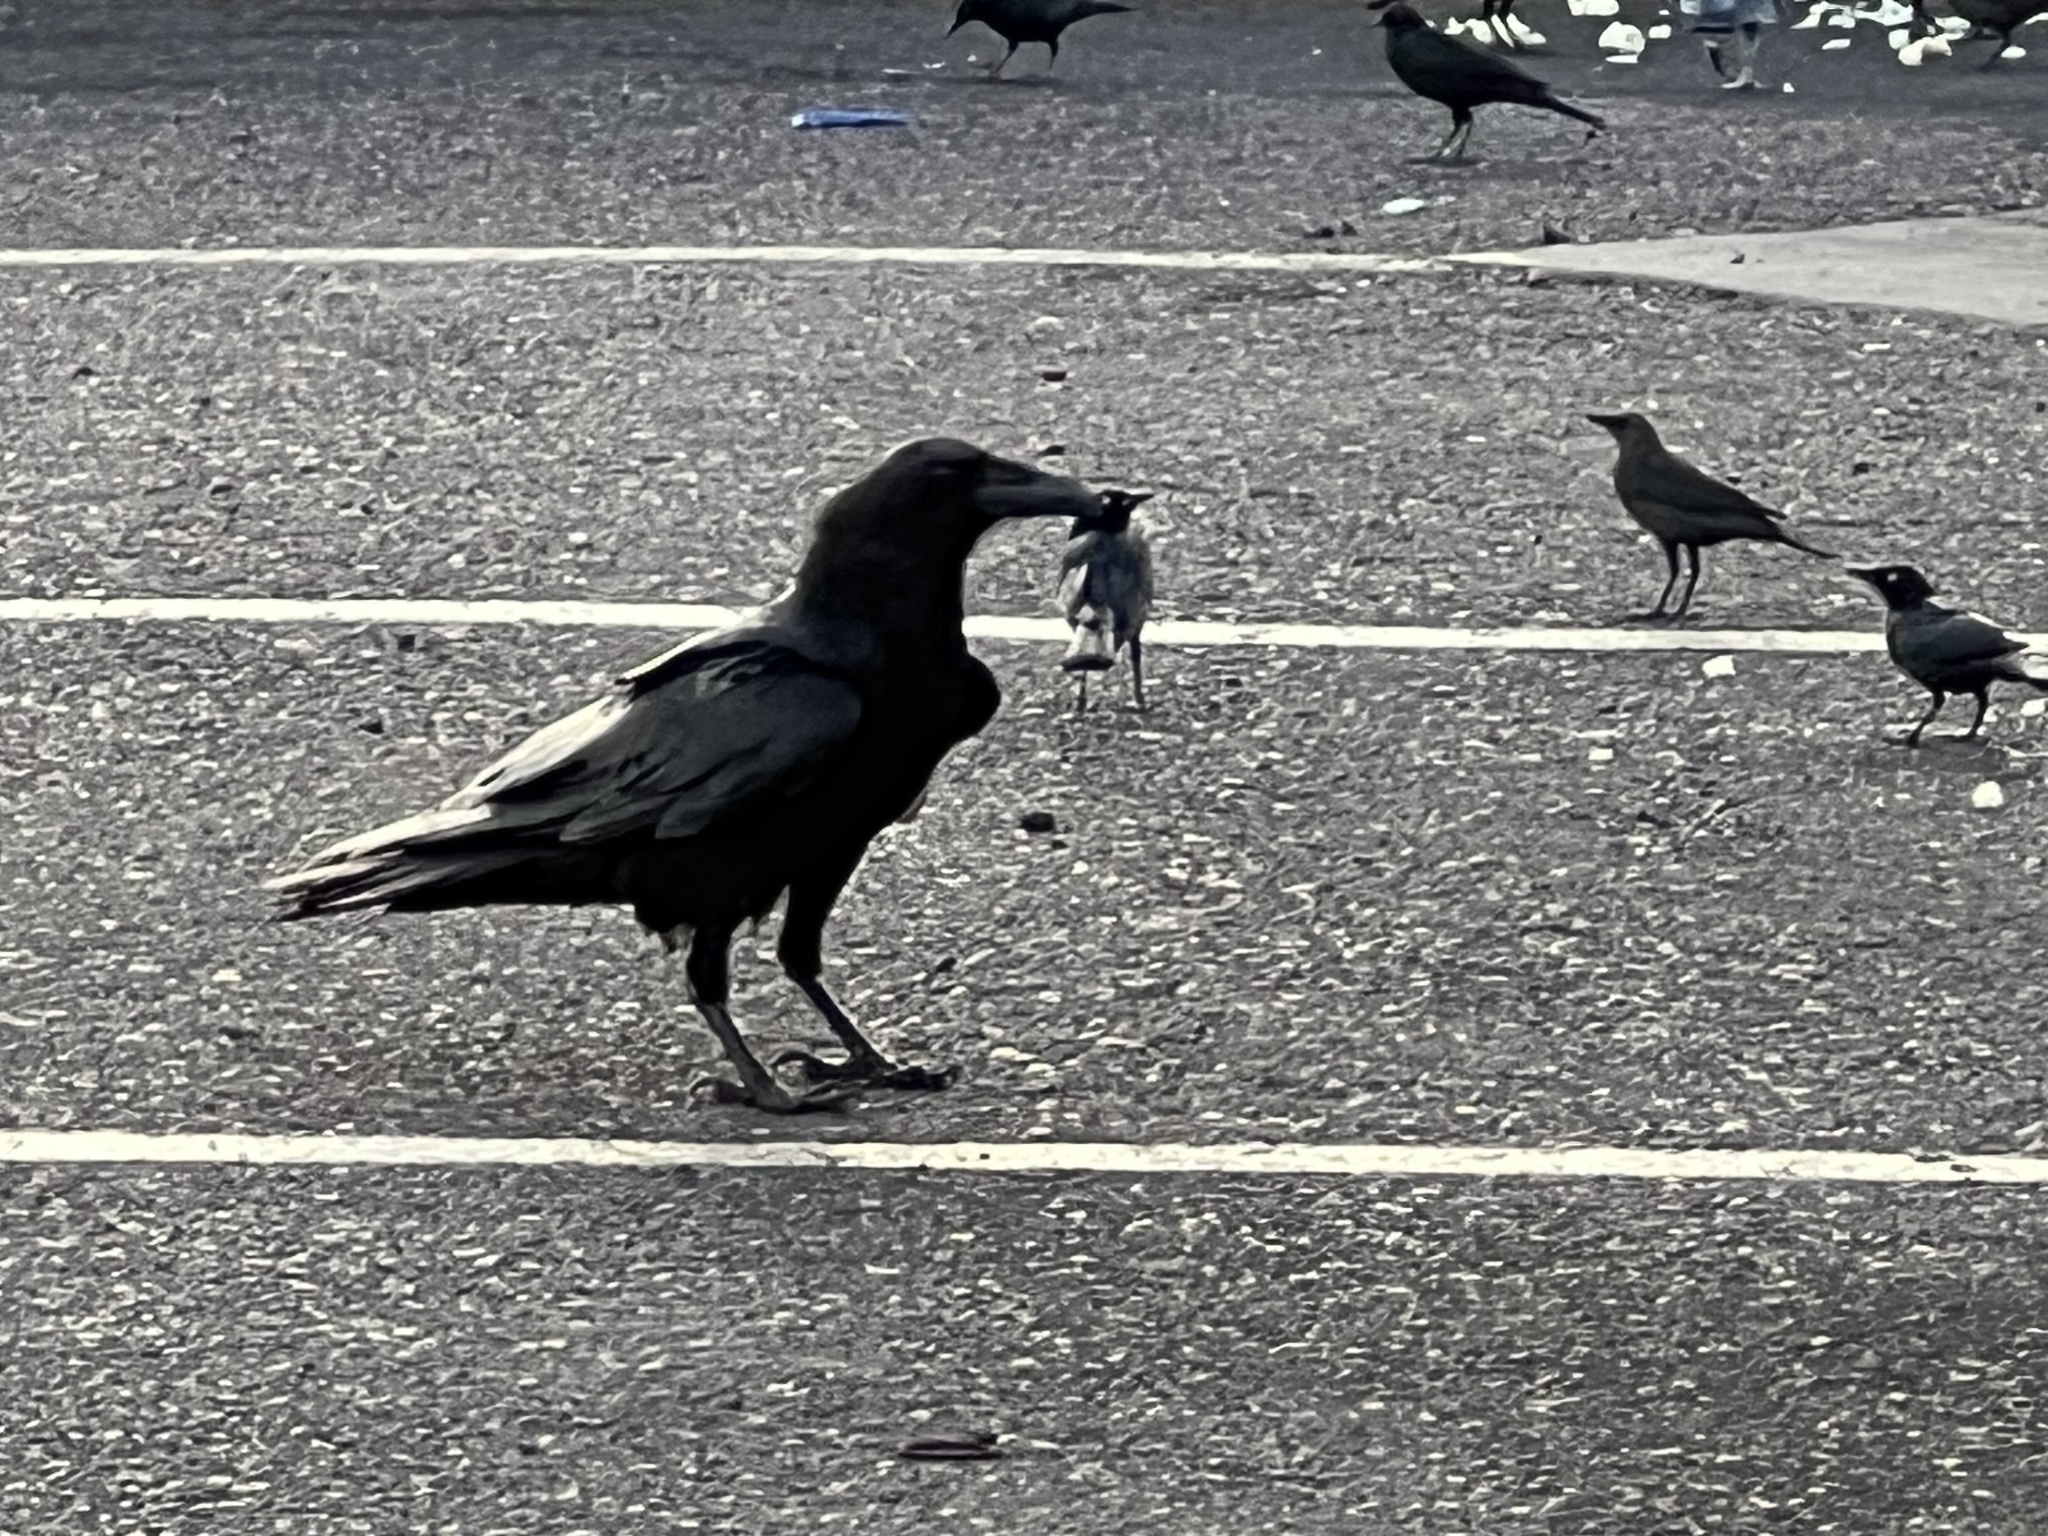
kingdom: Animalia
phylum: Chordata
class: Aves
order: Passeriformes
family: Corvidae
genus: Corvus
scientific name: Corvus corax
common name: Common raven
